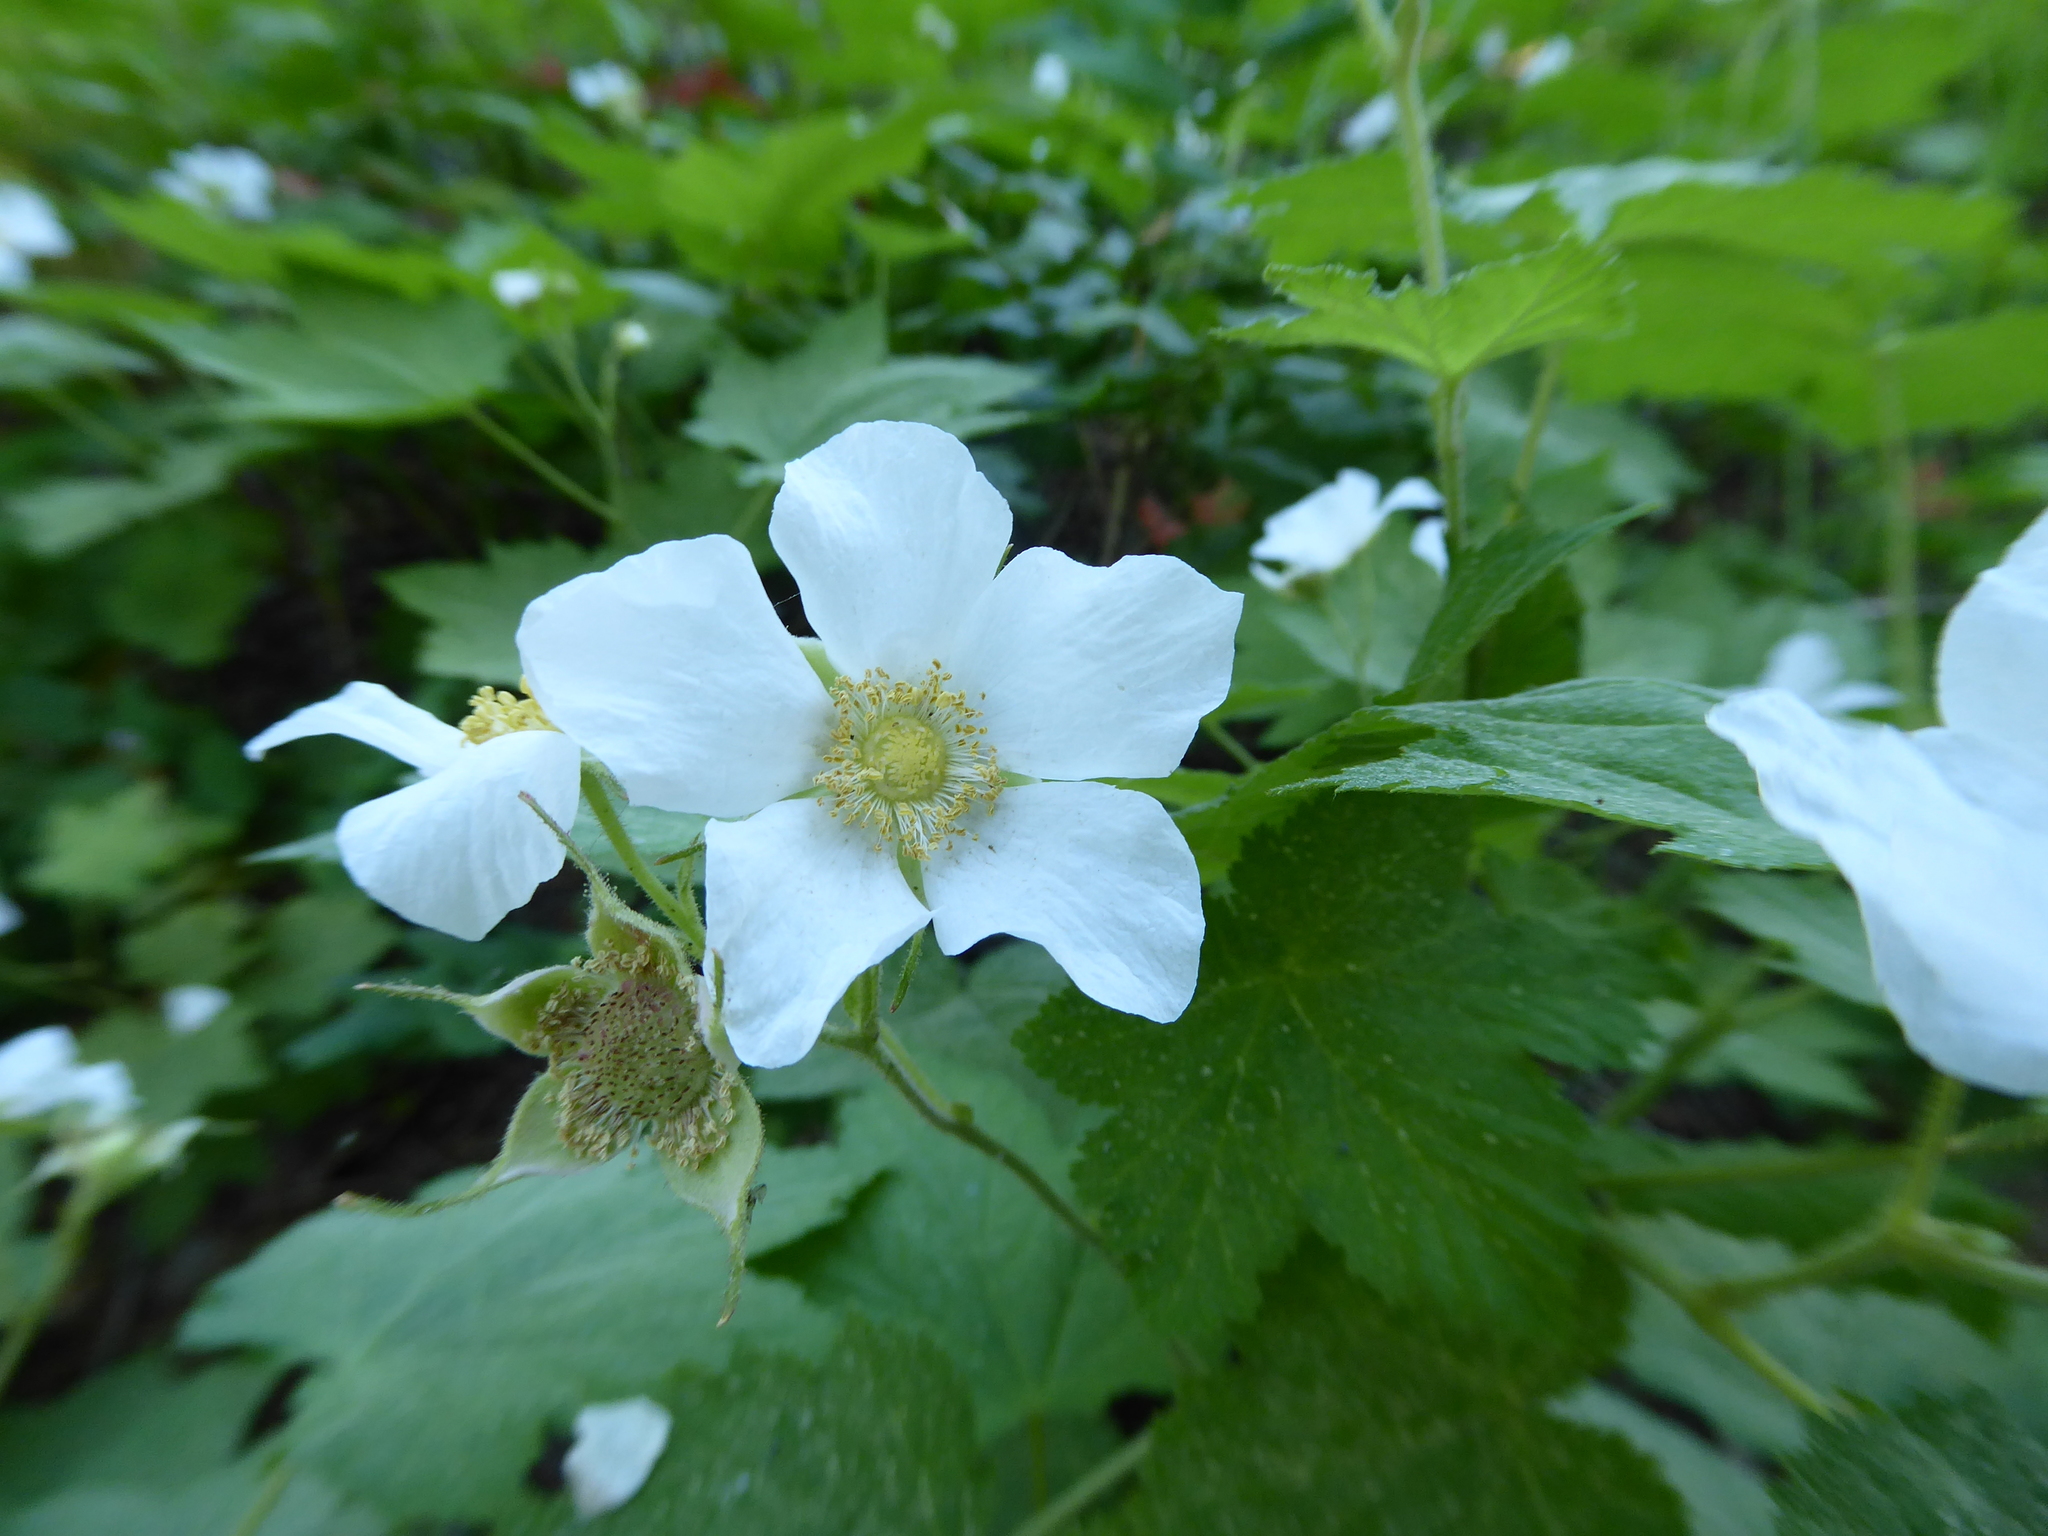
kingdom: Plantae
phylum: Tracheophyta
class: Magnoliopsida
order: Rosales
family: Rosaceae
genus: Rubus
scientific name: Rubus parviflorus
